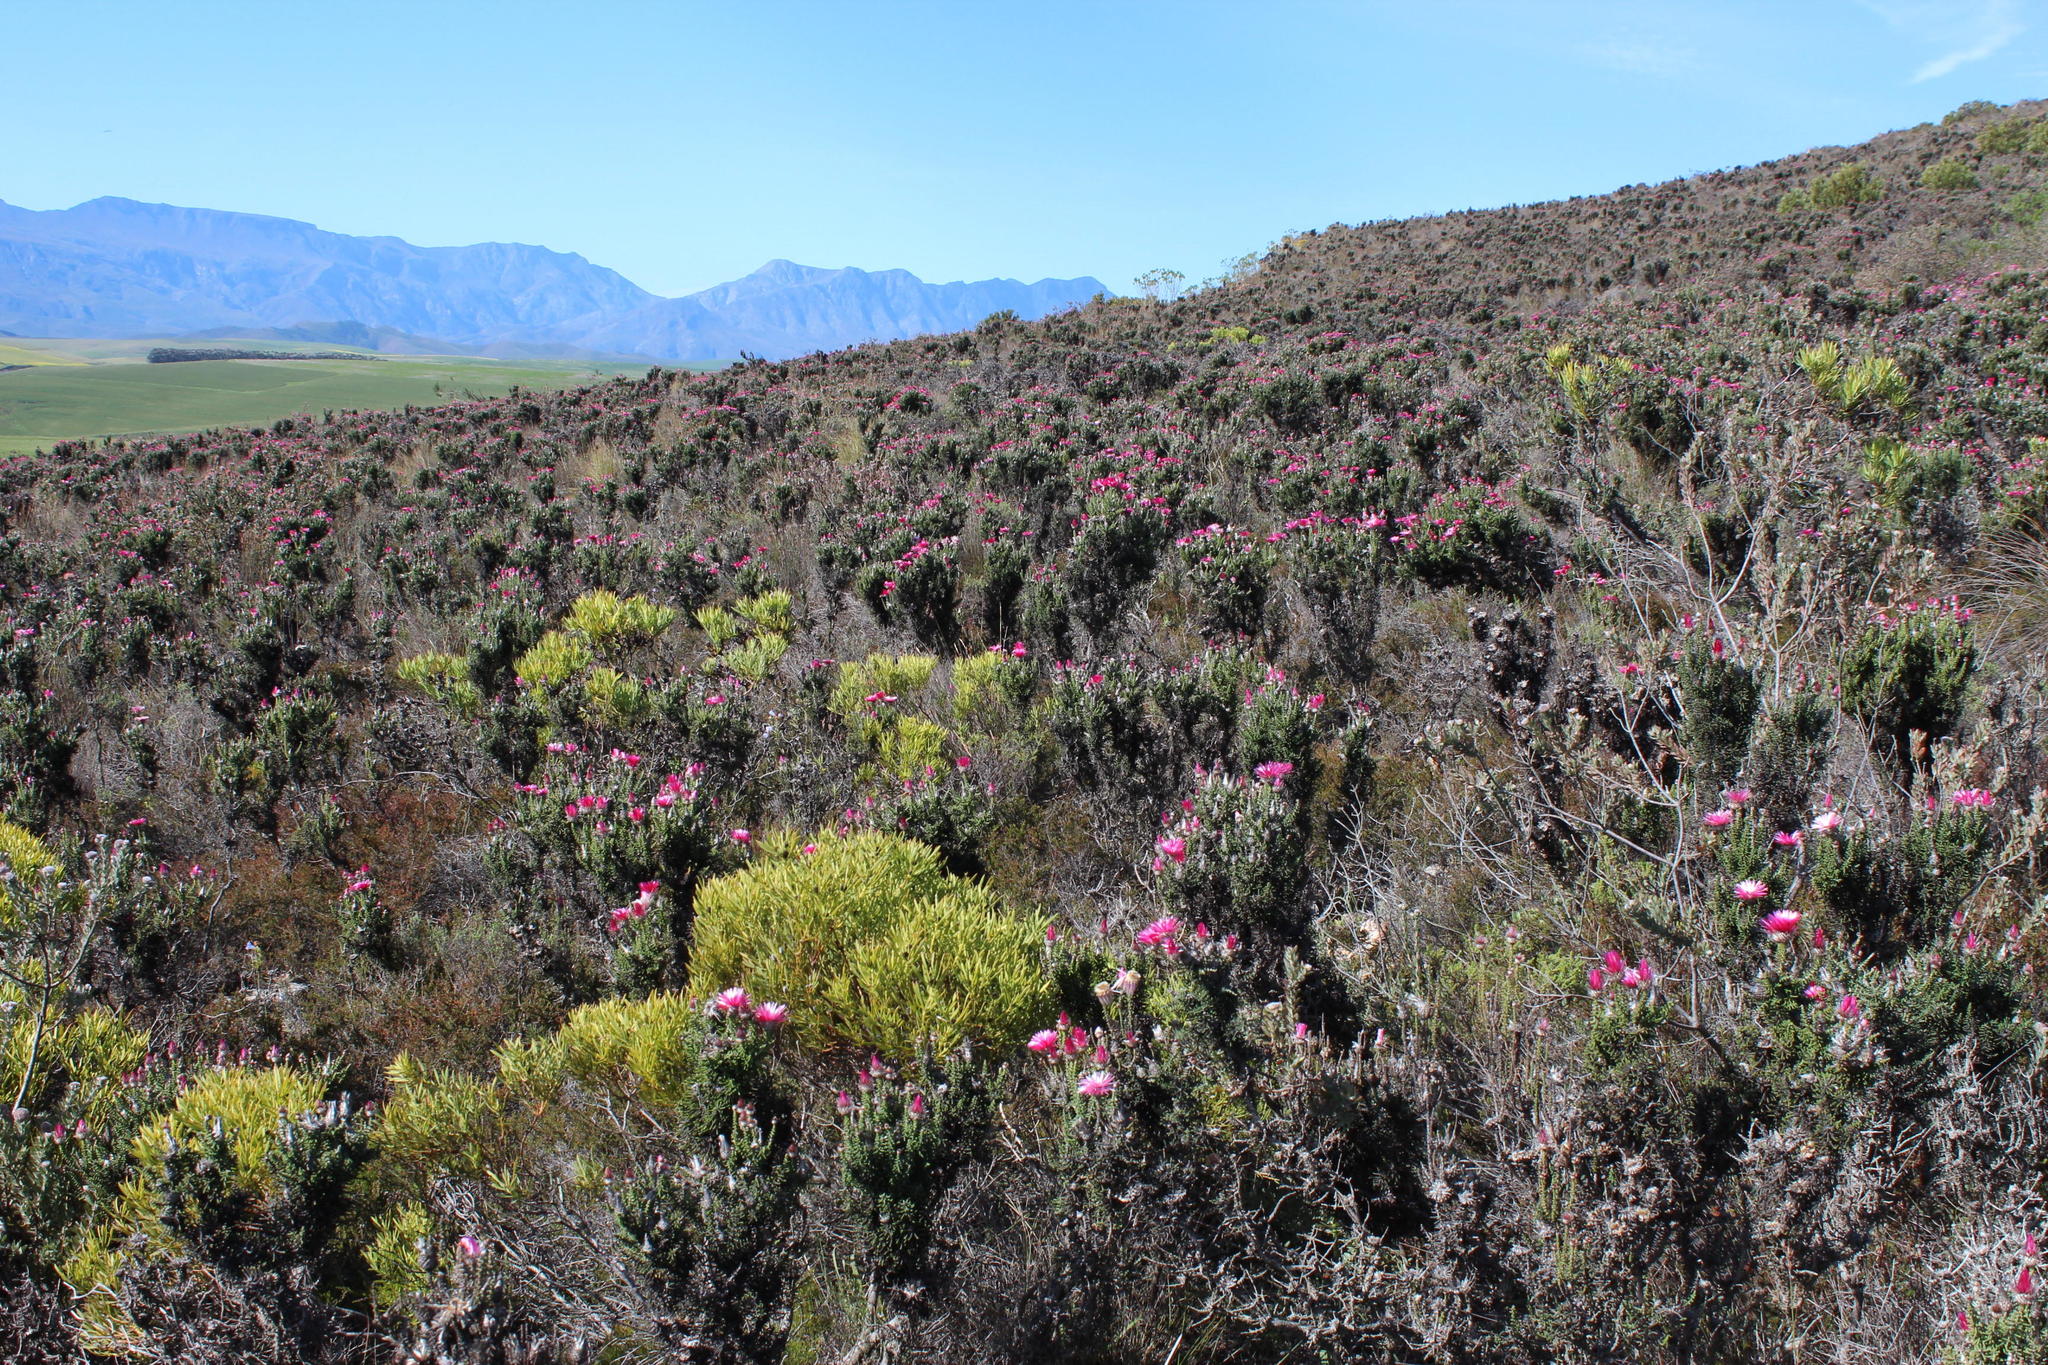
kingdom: Plantae
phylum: Tracheophyta
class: Magnoliopsida
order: Asterales
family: Asteraceae
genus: Phaenocoma
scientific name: Phaenocoma prolifera
